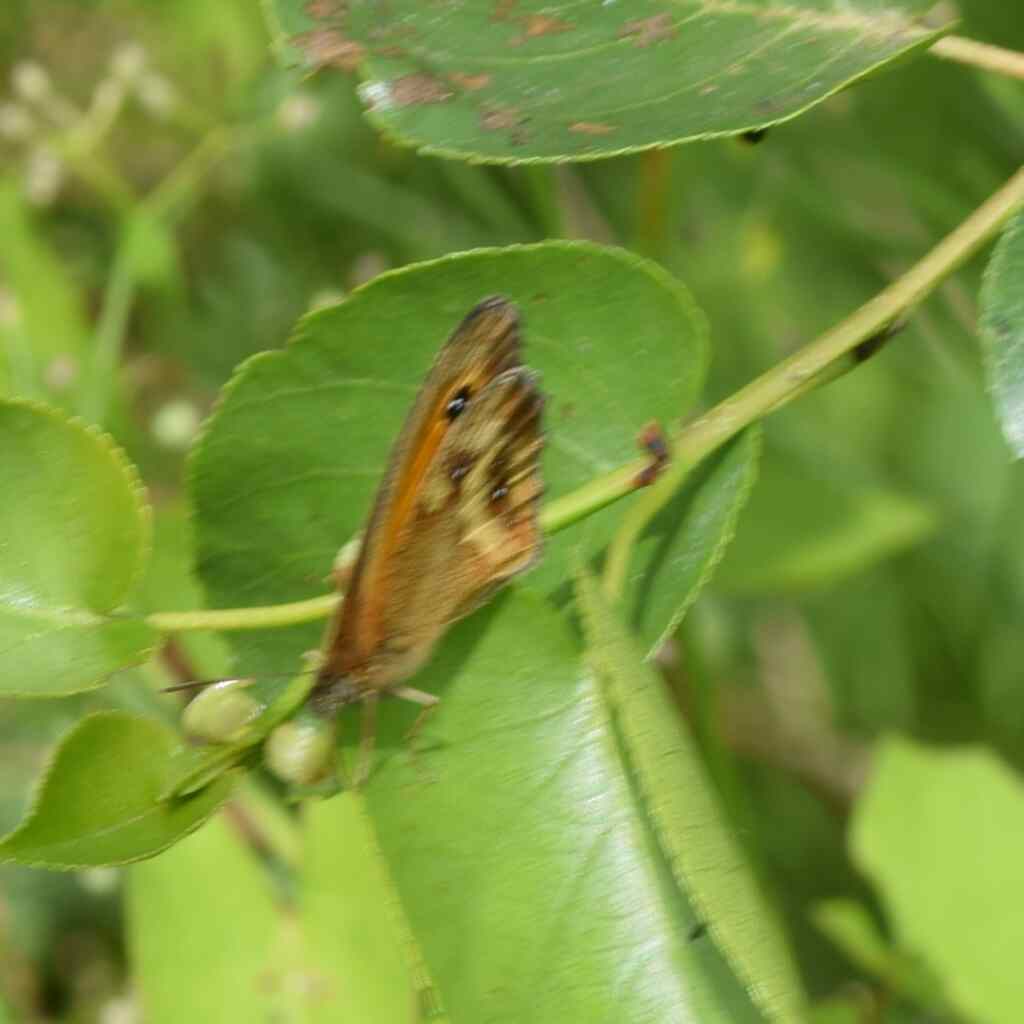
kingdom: Animalia
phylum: Arthropoda
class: Insecta
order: Lepidoptera
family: Nymphalidae
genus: Pyronia
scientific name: Pyronia tithonus
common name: Gatekeeper
